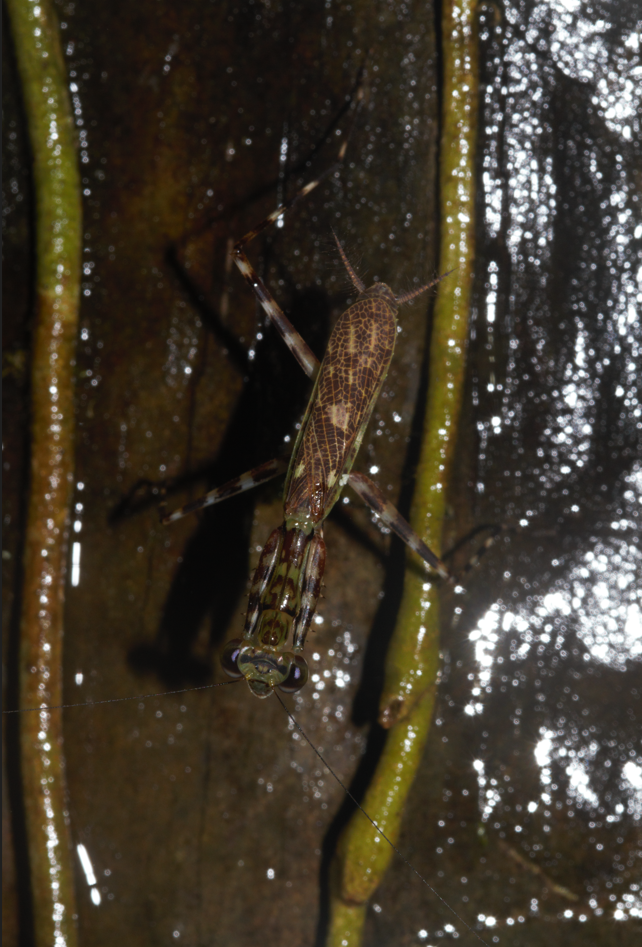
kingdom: Animalia
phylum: Arthropoda
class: Insecta
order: Mantodea
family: Liturgusidae
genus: Liturgusa
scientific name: Liturgusa milleri
